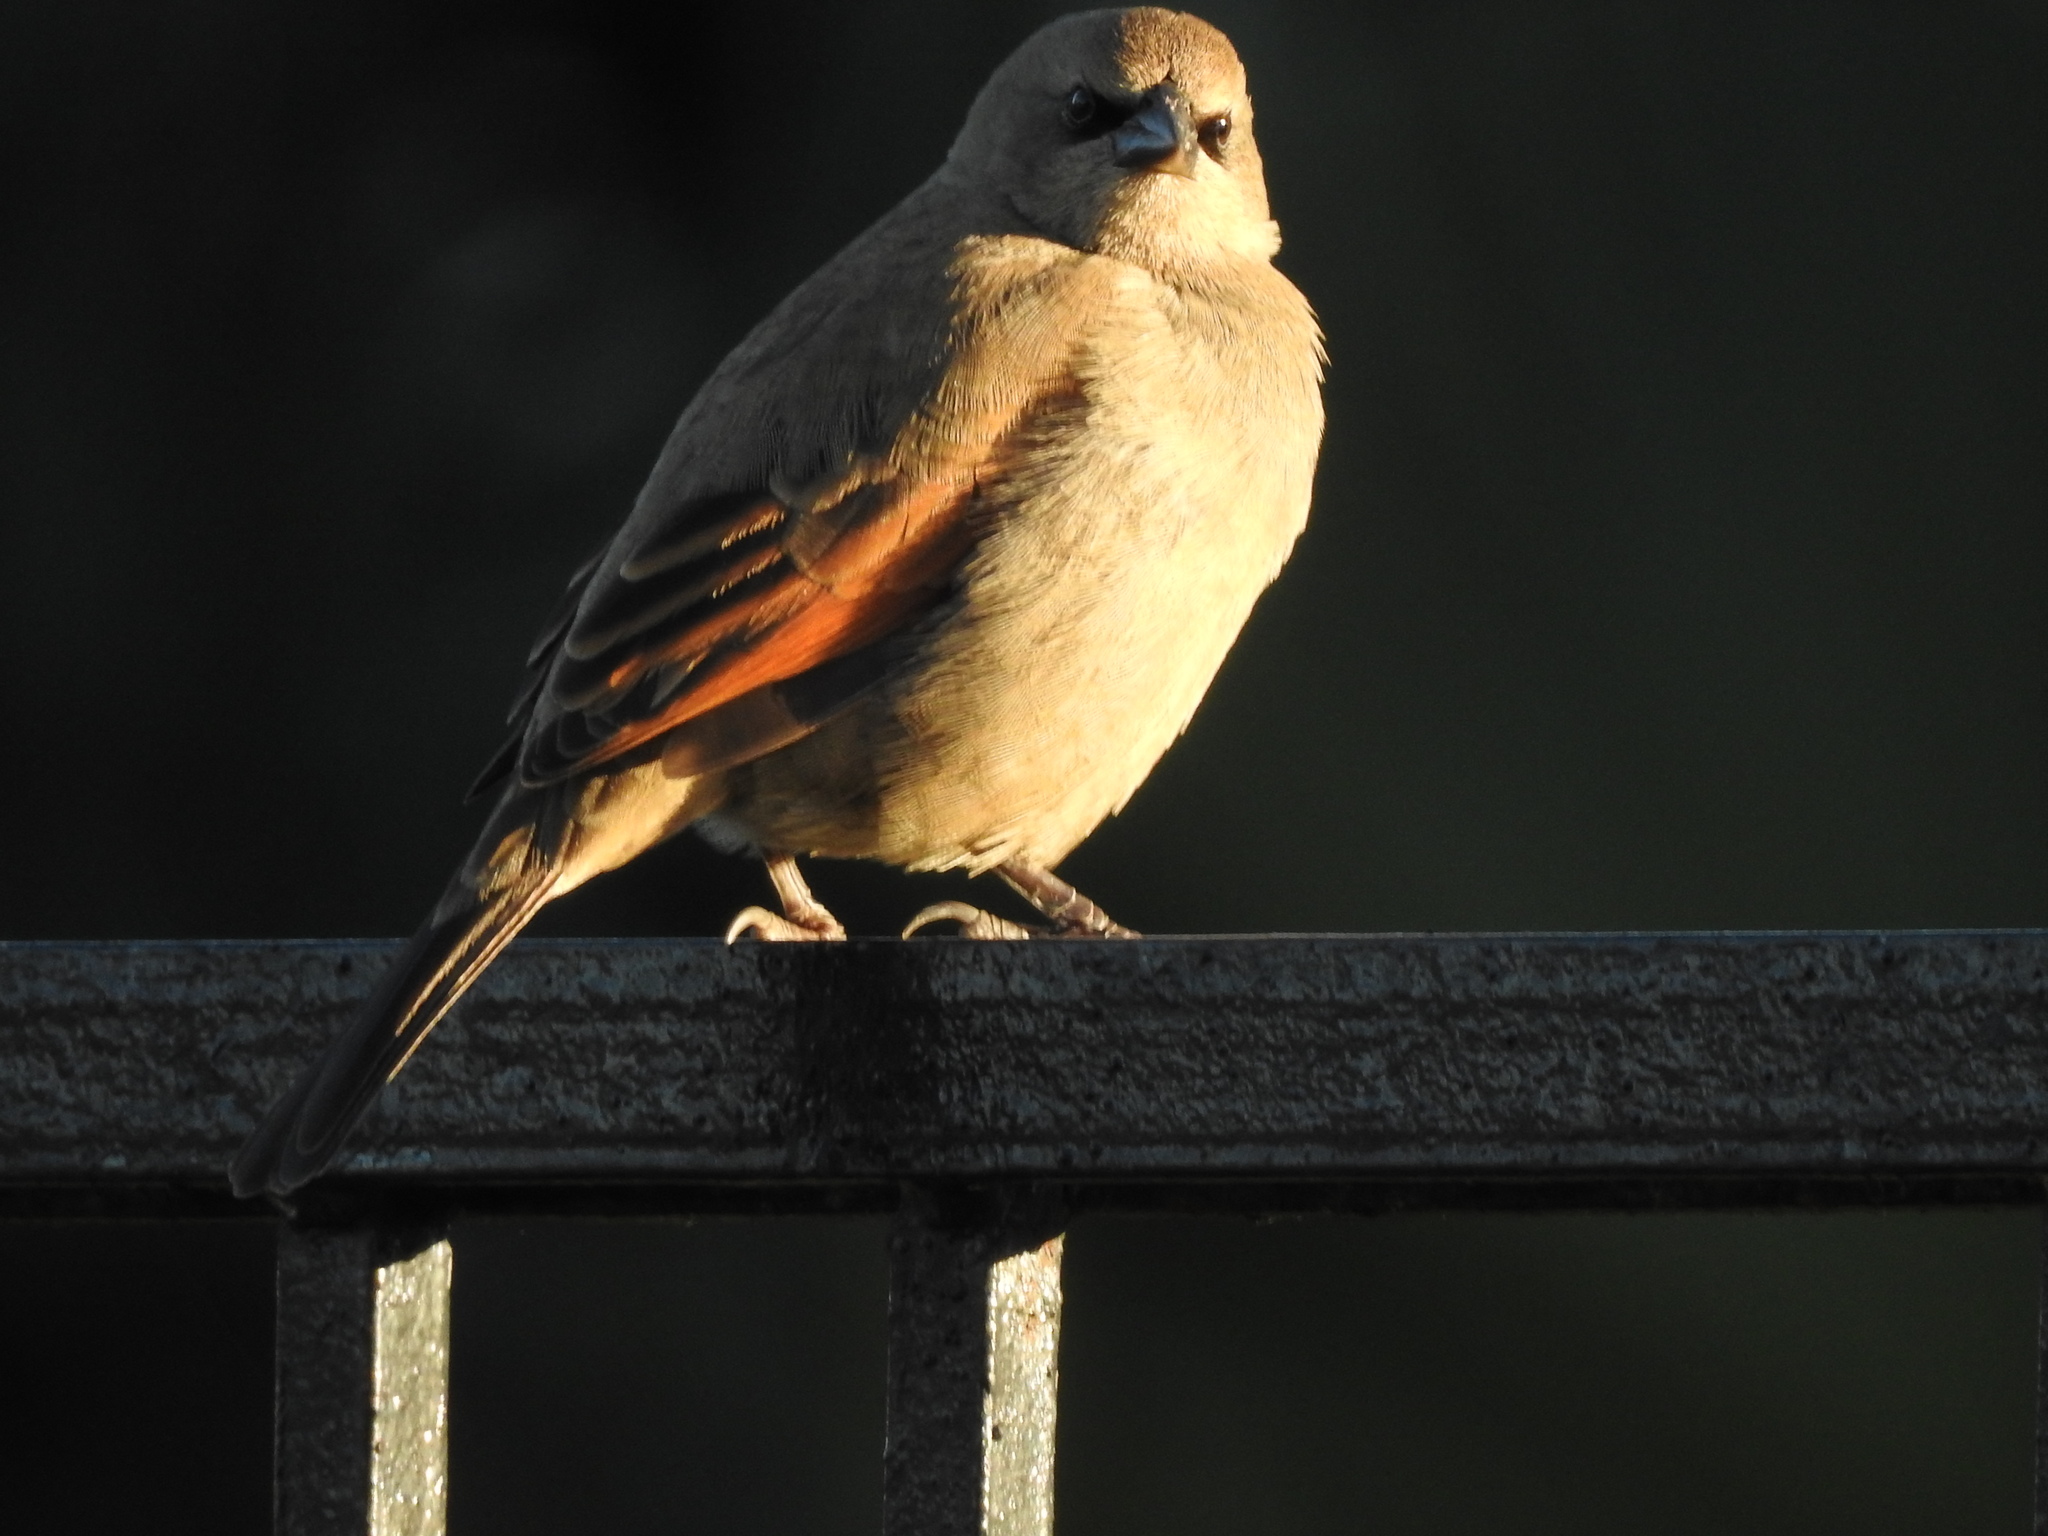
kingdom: Animalia
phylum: Chordata
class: Aves
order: Passeriformes
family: Icteridae
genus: Agelaioides
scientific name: Agelaioides badius
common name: Baywing
